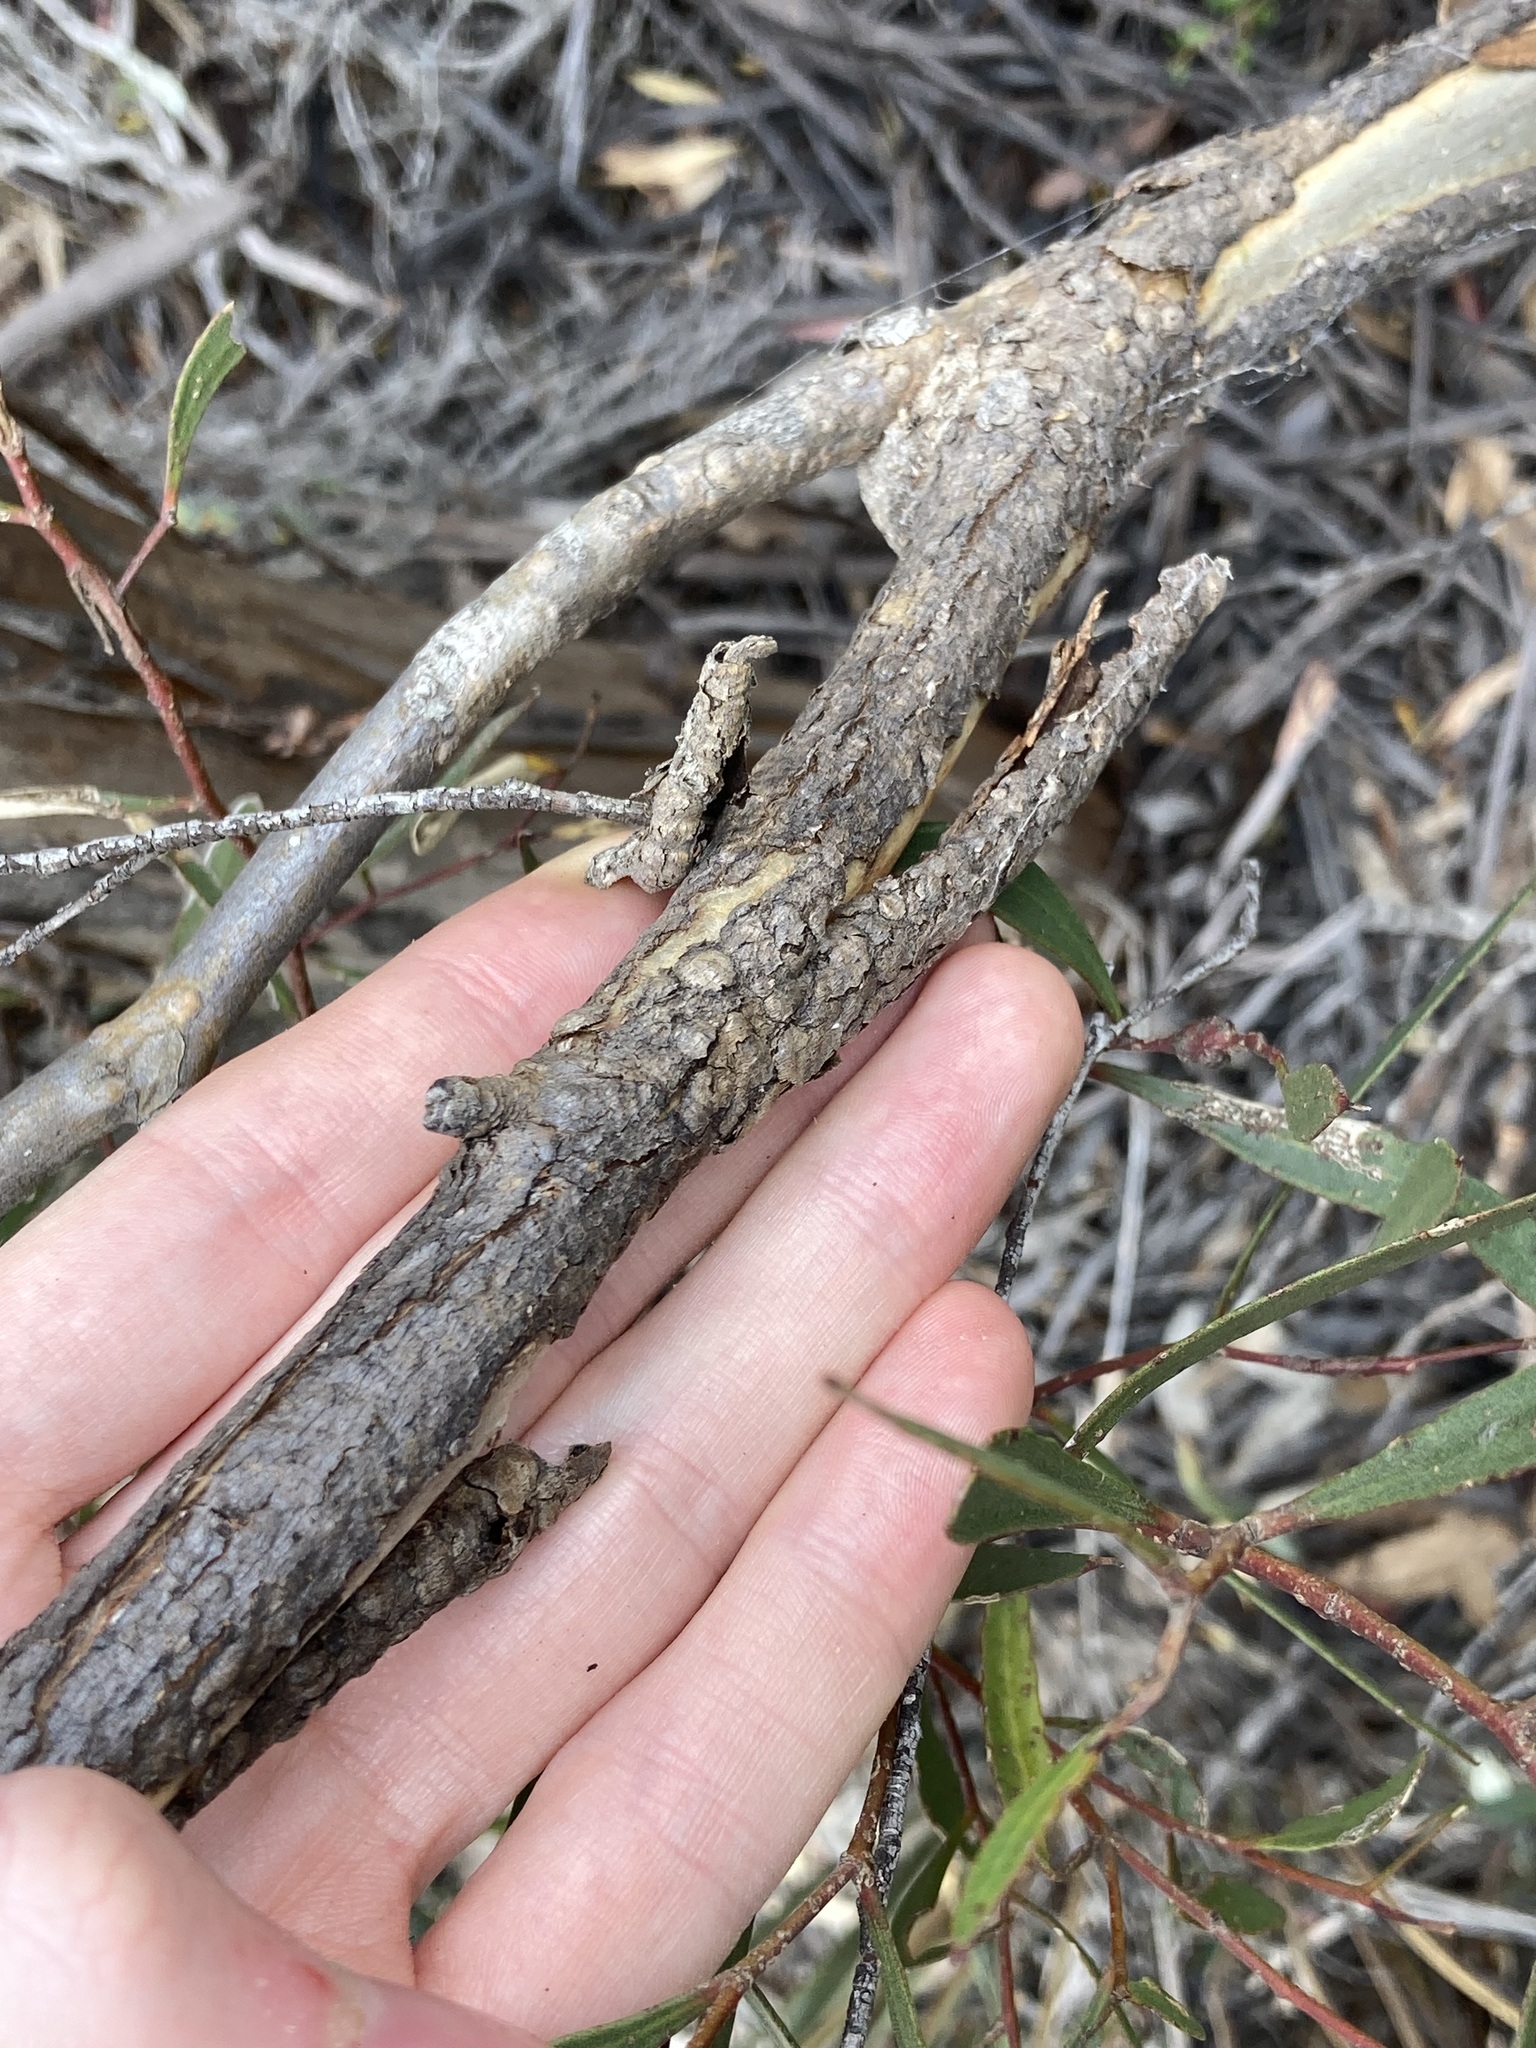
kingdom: Plantae
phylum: Tracheophyta
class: Magnoliopsida
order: Myrtales
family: Myrtaceae
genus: Eucalyptus
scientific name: Eucalyptus flocktoniae
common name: Flockton's mallee
